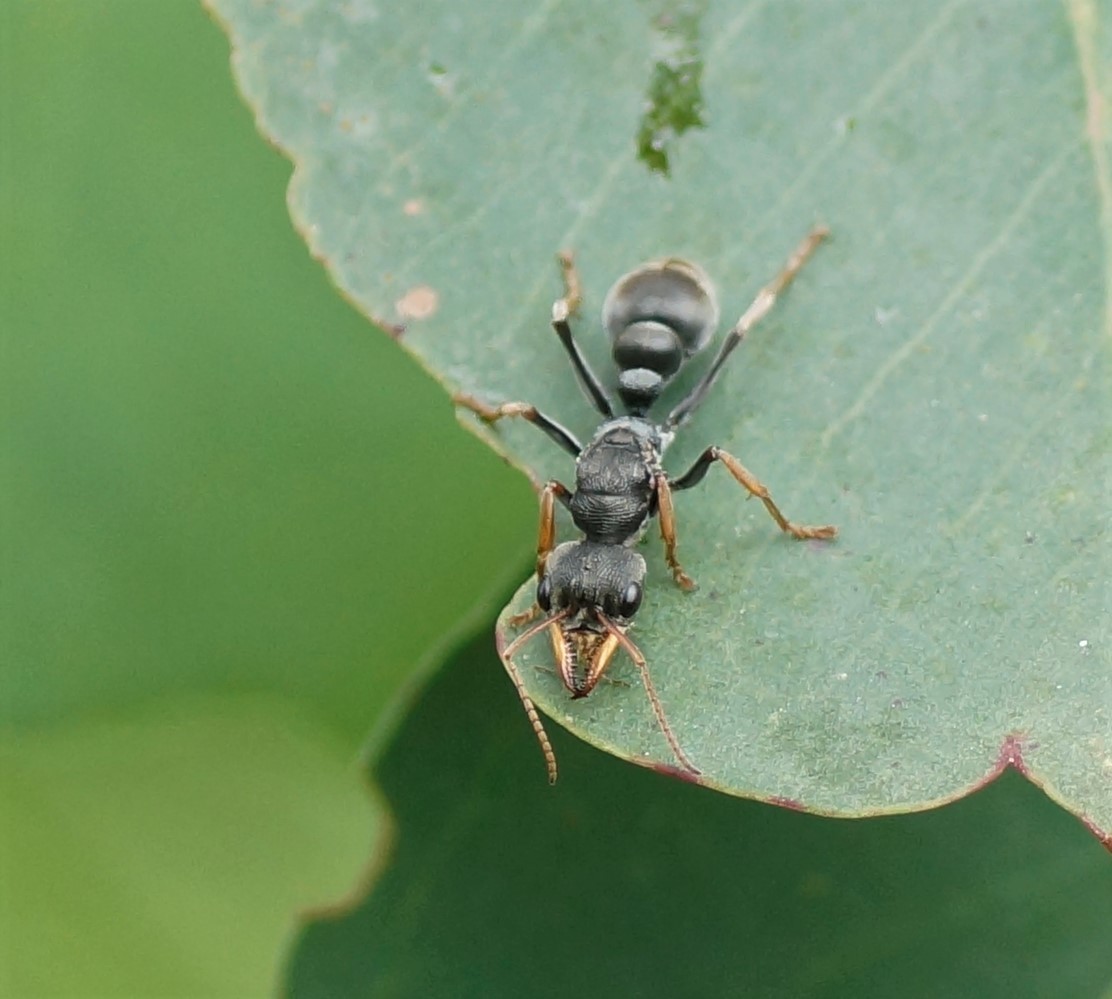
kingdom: Animalia
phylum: Arthropoda
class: Insecta
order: Hymenoptera
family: Formicidae
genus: Myrmecia
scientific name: Myrmecia pilosula
